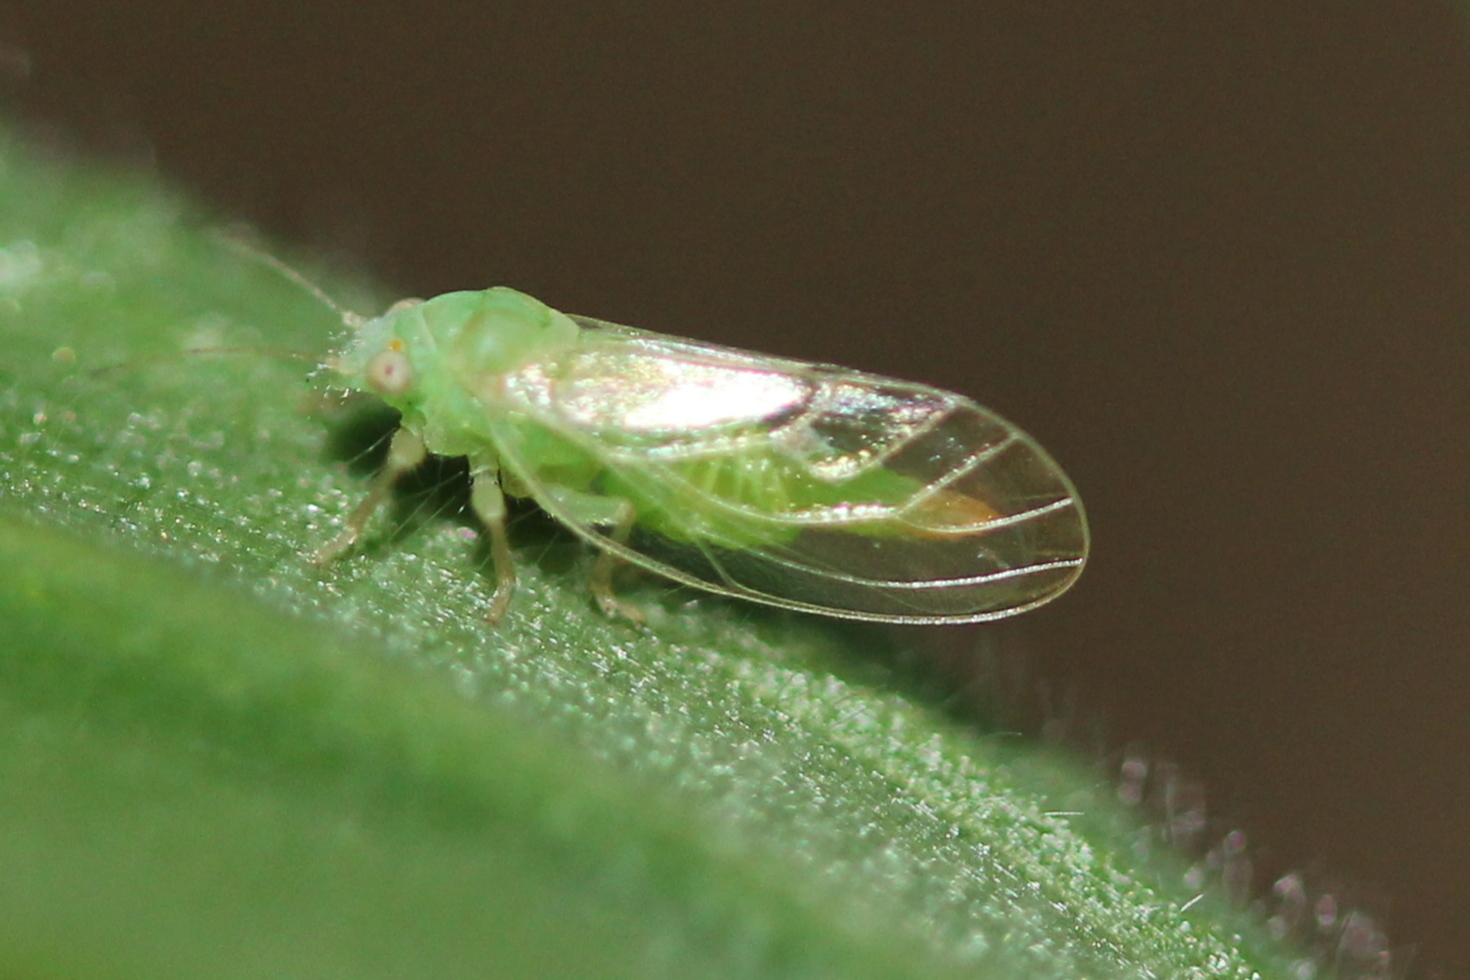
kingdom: Animalia
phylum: Arthropoda
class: Insecta
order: Hemiptera
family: Psyllidae
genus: Psylla
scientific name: Psylla buxi
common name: Boxwood psyllid
